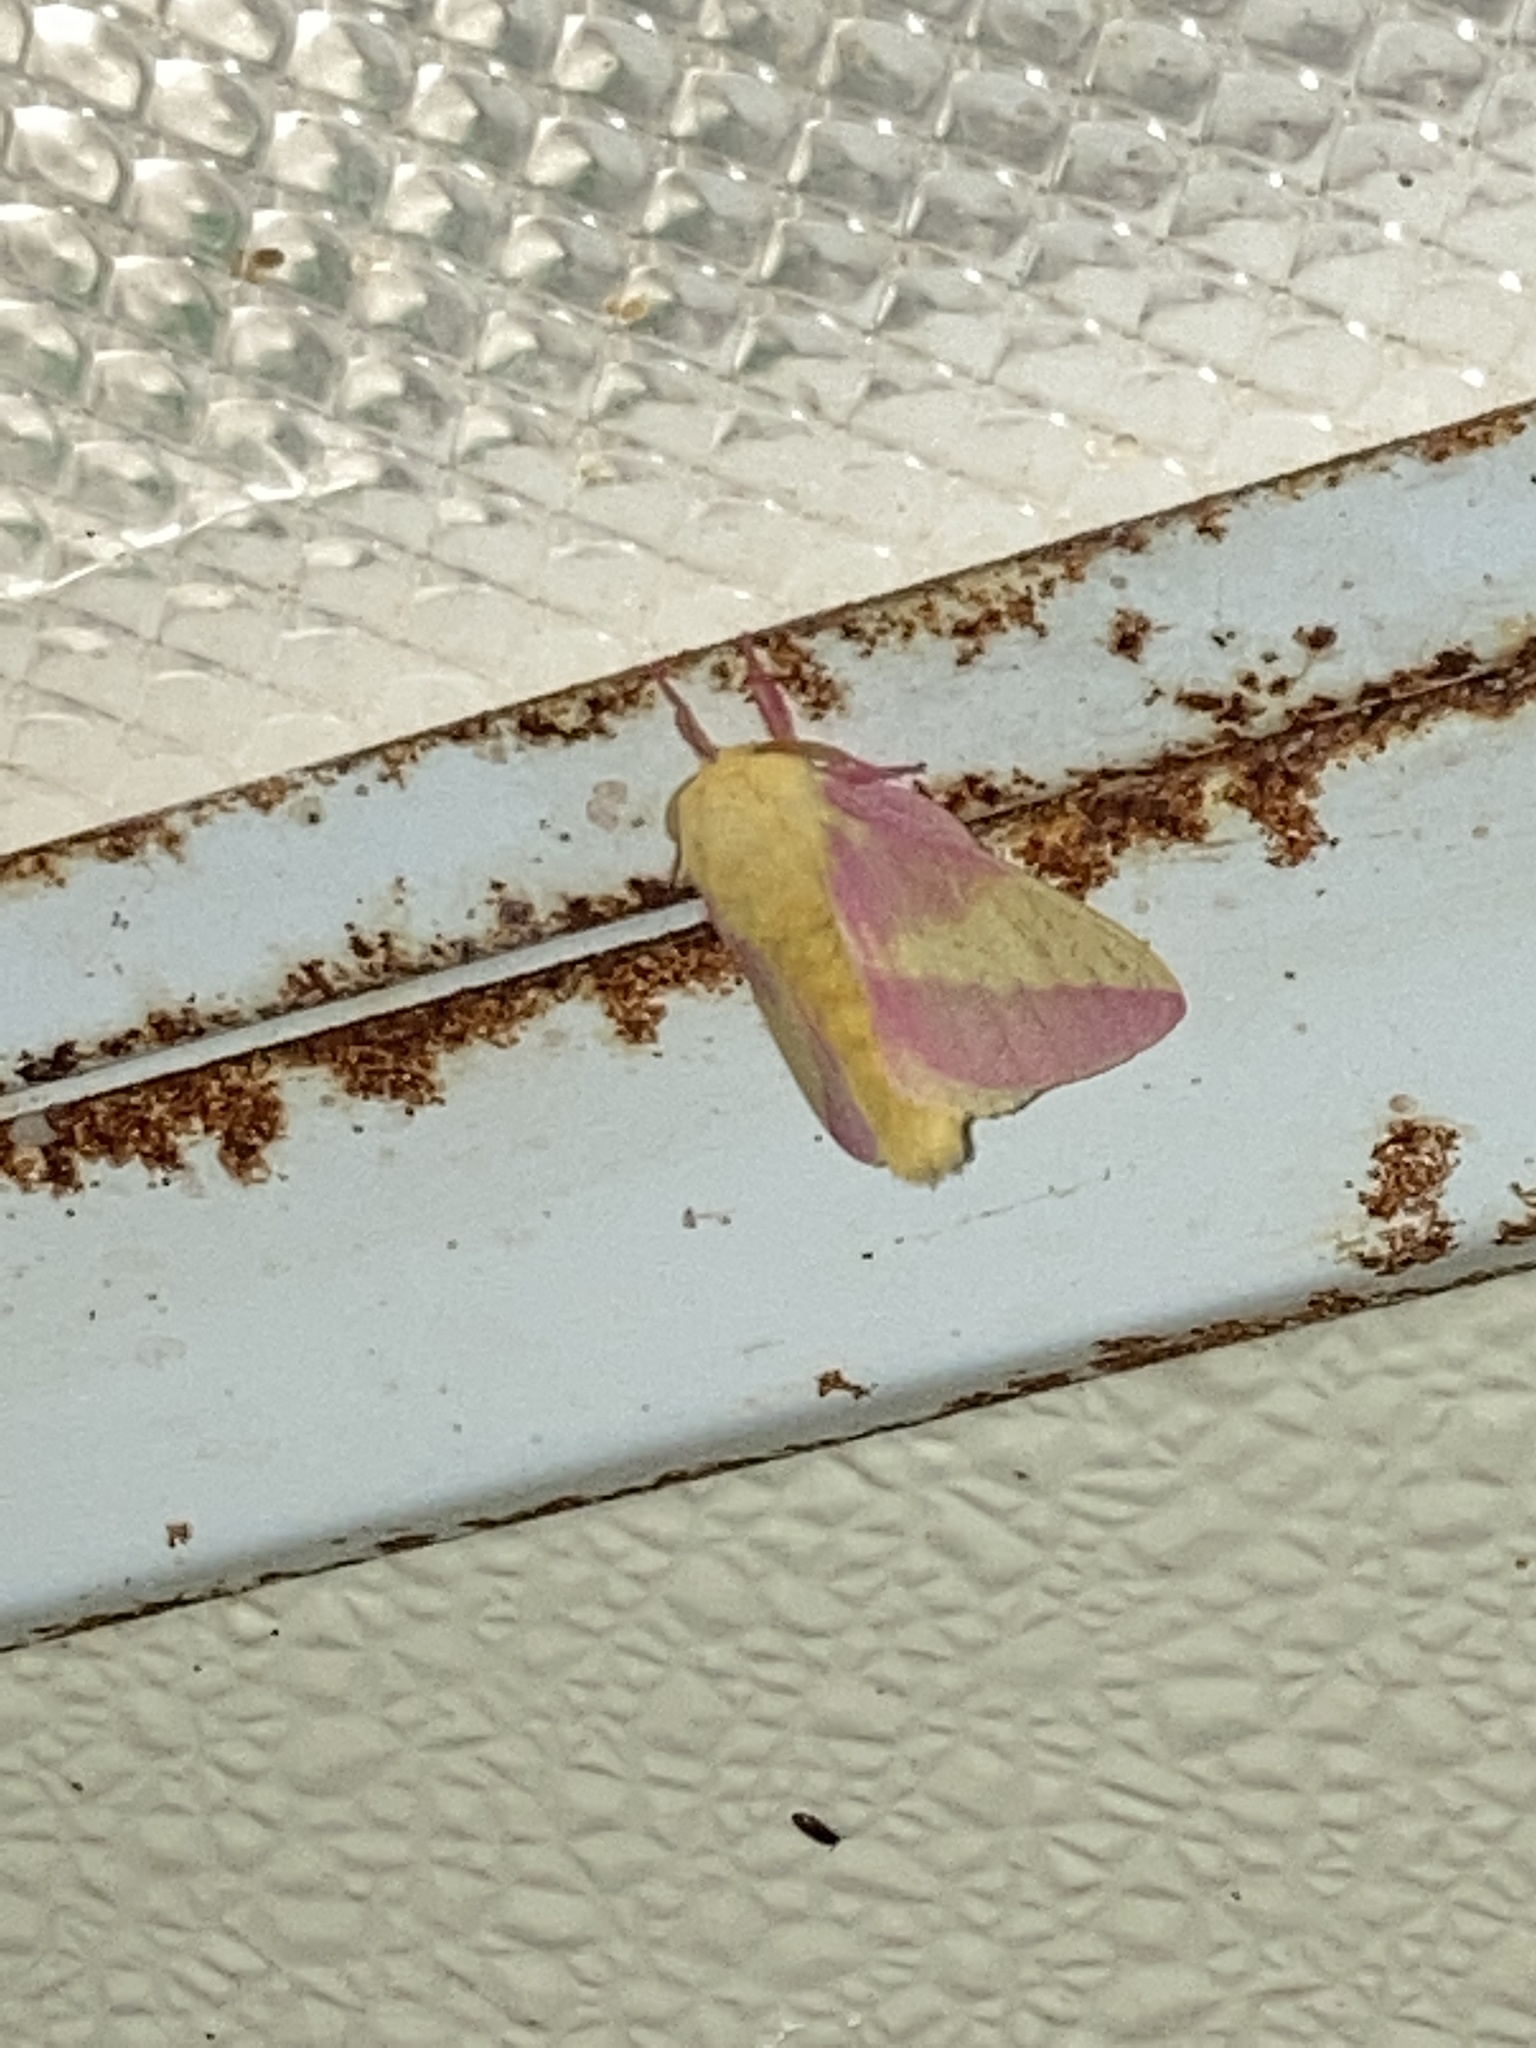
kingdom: Animalia
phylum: Arthropoda
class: Insecta
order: Lepidoptera
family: Saturniidae
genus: Dryocampa
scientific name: Dryocampa rubicunda
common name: Rosy maple moth
